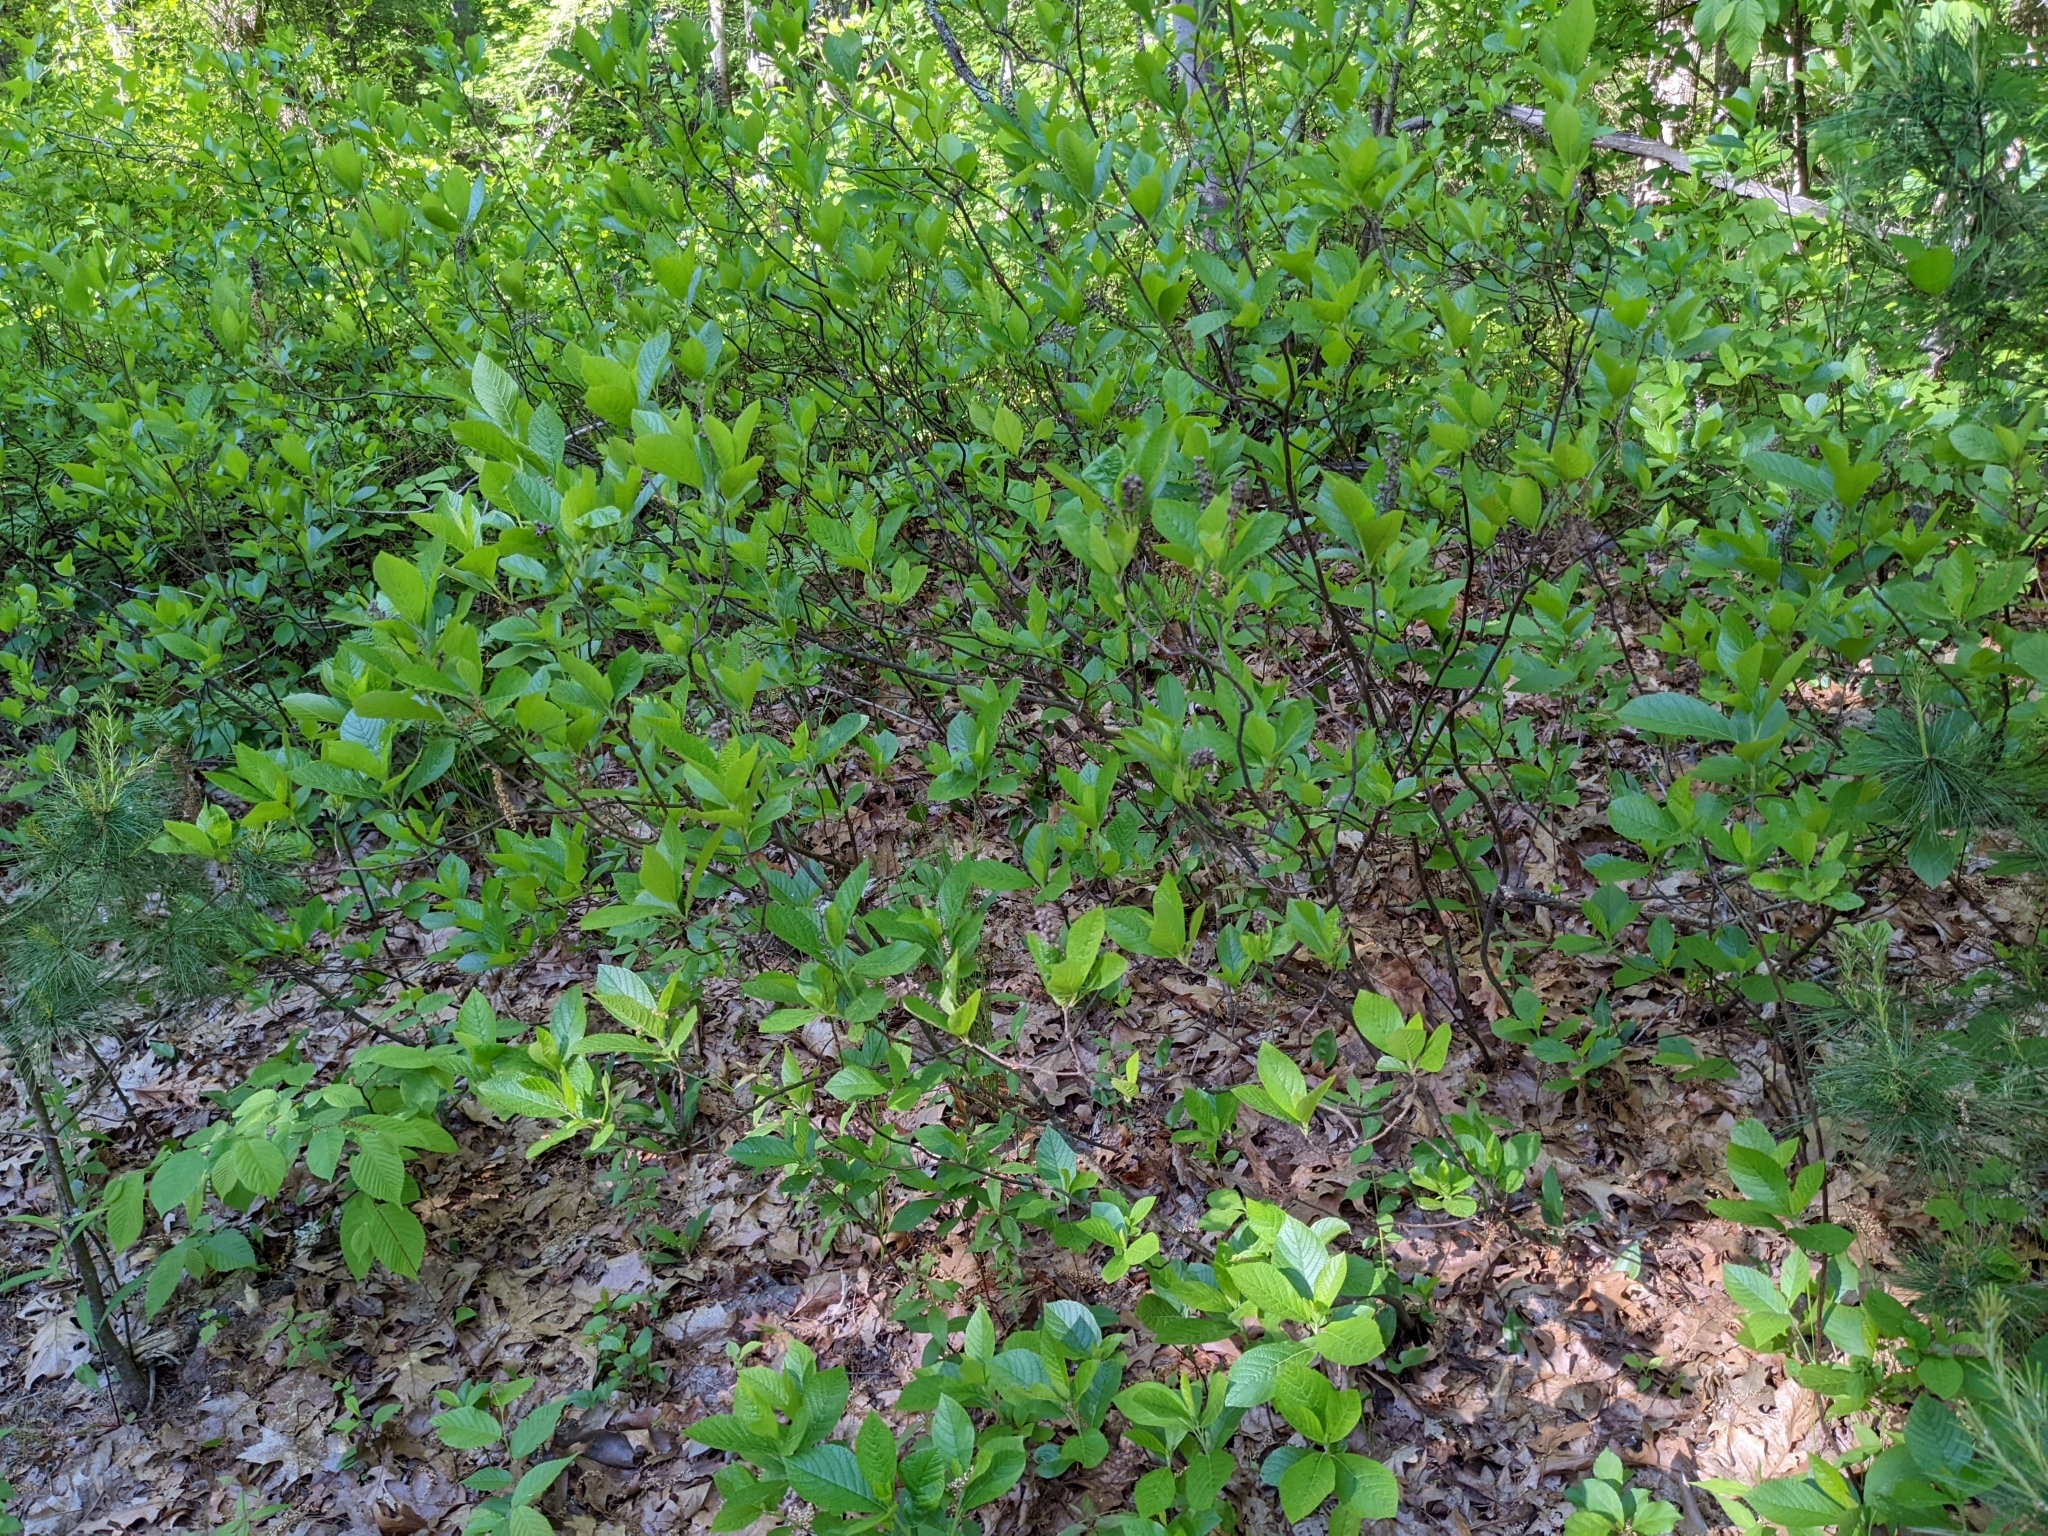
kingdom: Plantae
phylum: Tracheophyta
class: Magnoliopsida
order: Ericales
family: Clethraceae
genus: Clethra
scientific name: Clethra alnifolia
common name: Sweet pepperbush
